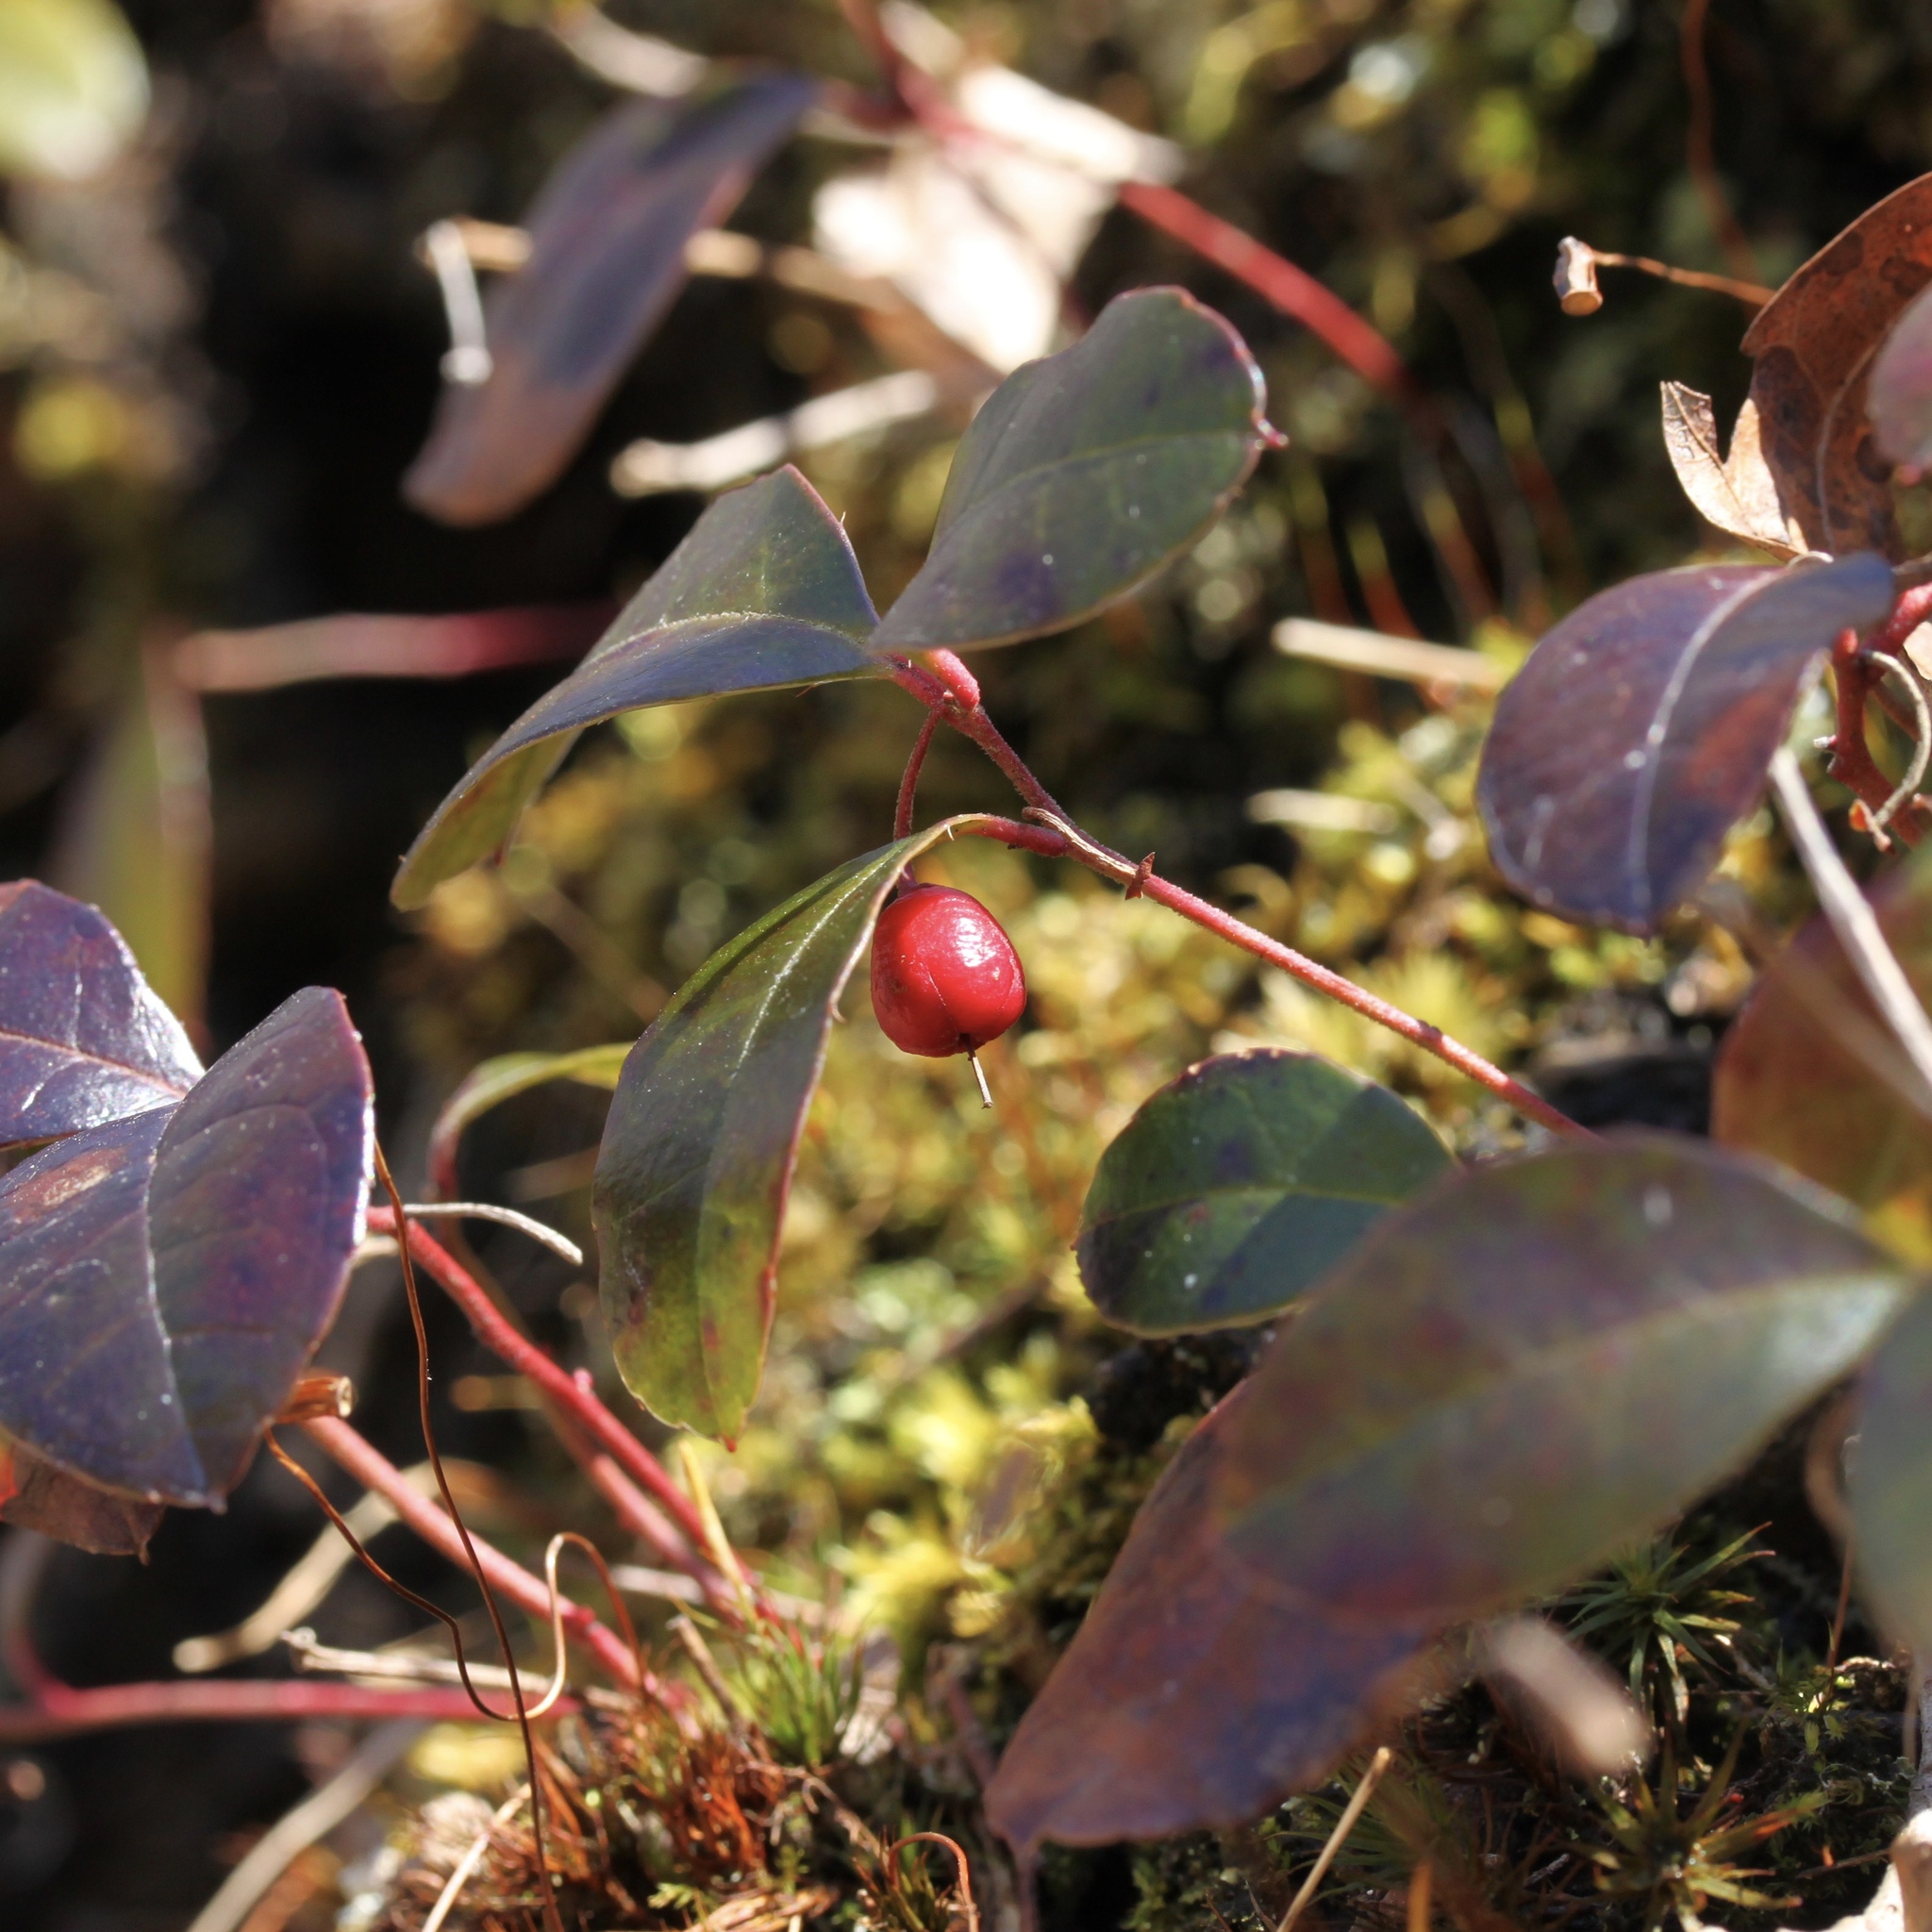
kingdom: Plantae
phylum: Tracheophyta
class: Magnoliopsida
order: Ericales
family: Ericaceae
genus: Gaultheria
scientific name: Gaultheria procumbens
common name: Checkerberry
